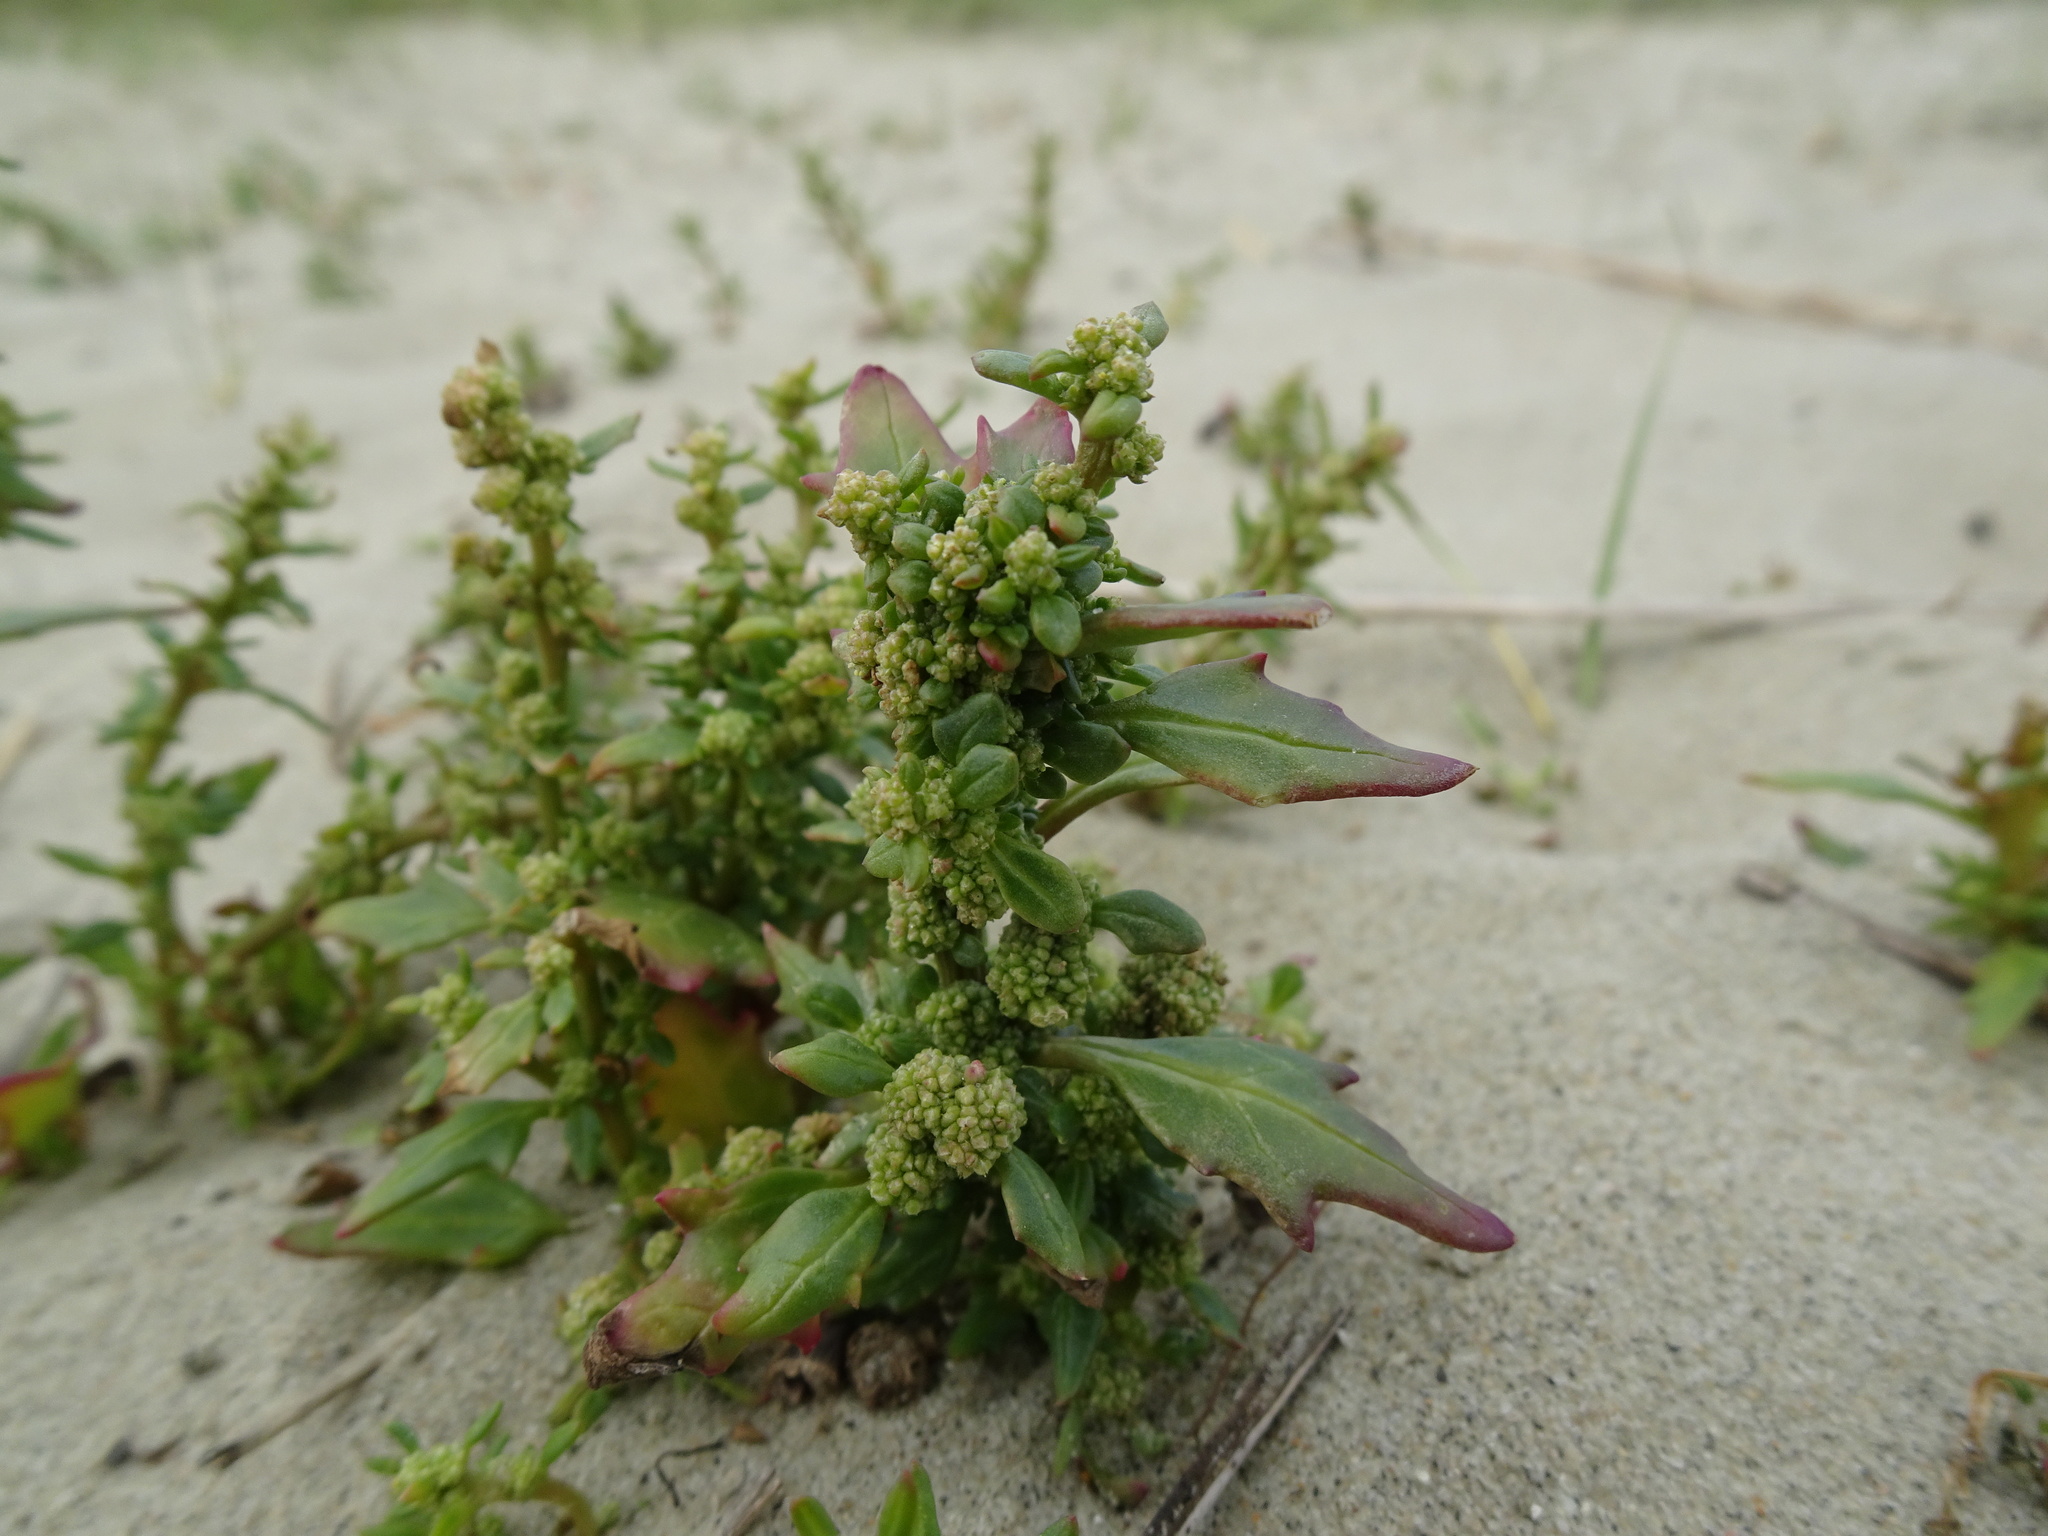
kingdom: Plantae
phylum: Tracheophyta
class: Magnoliopsida
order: Caryophyllales
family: Amaranthaceae
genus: Oxybasis
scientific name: Oxybasis rubra
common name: Red goosefoot
